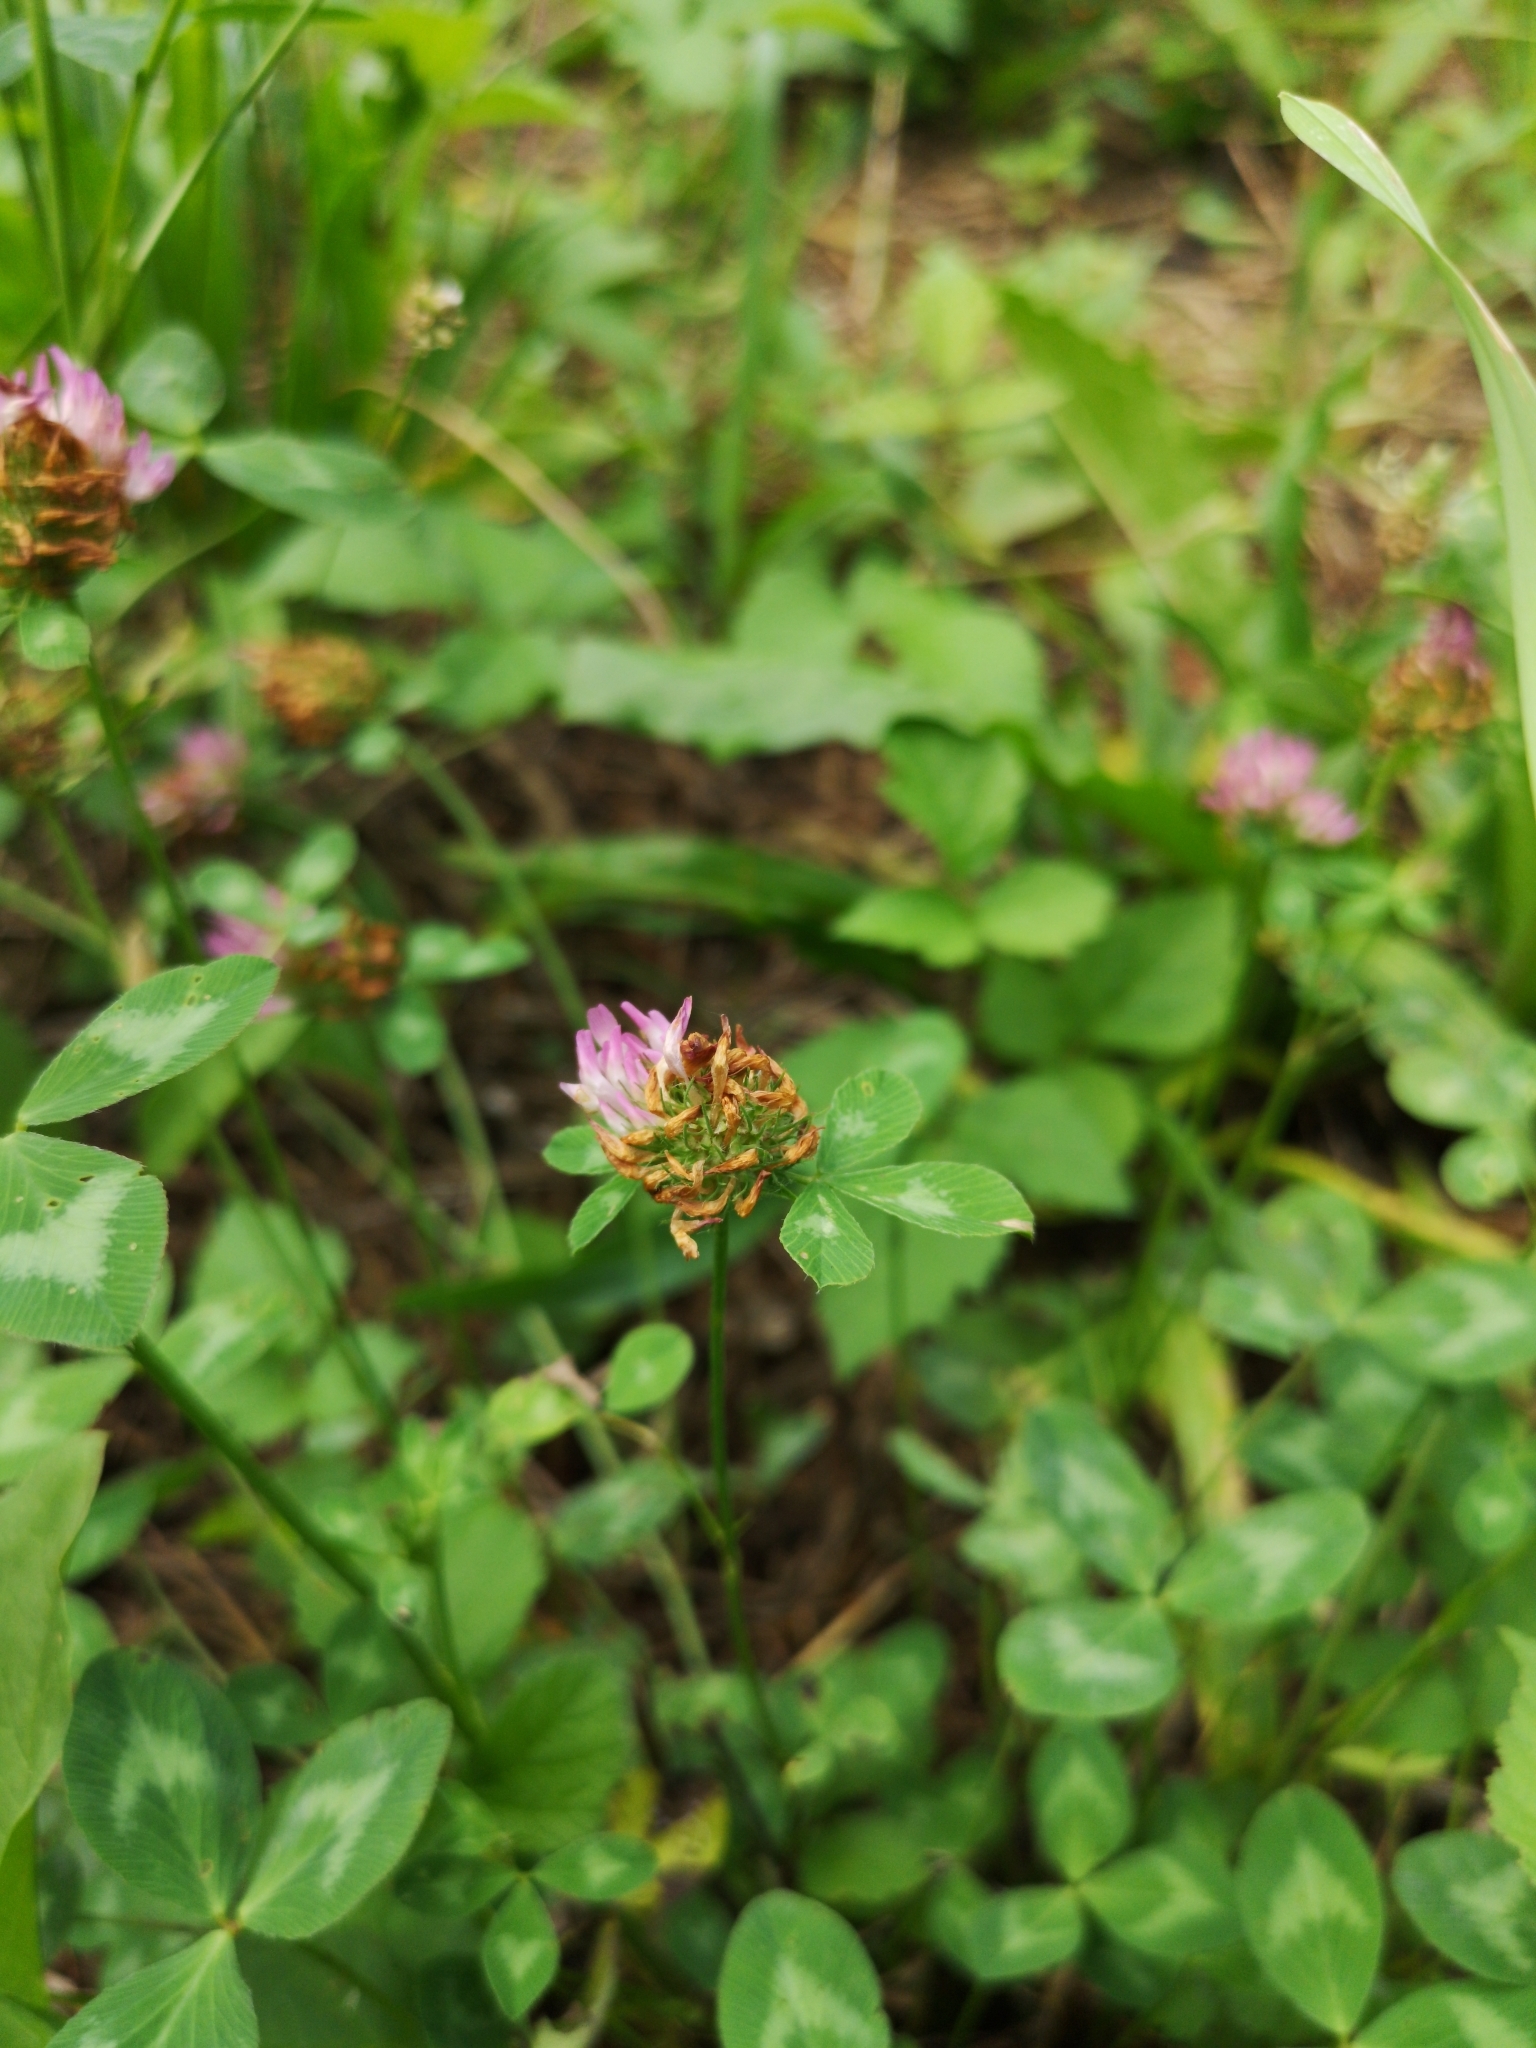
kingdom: Plantae
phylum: Tracheophyta
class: Magnoliopsida
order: Fabales
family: Fabaceae
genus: Trifolium
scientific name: Trifolium pratense
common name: Red clover
